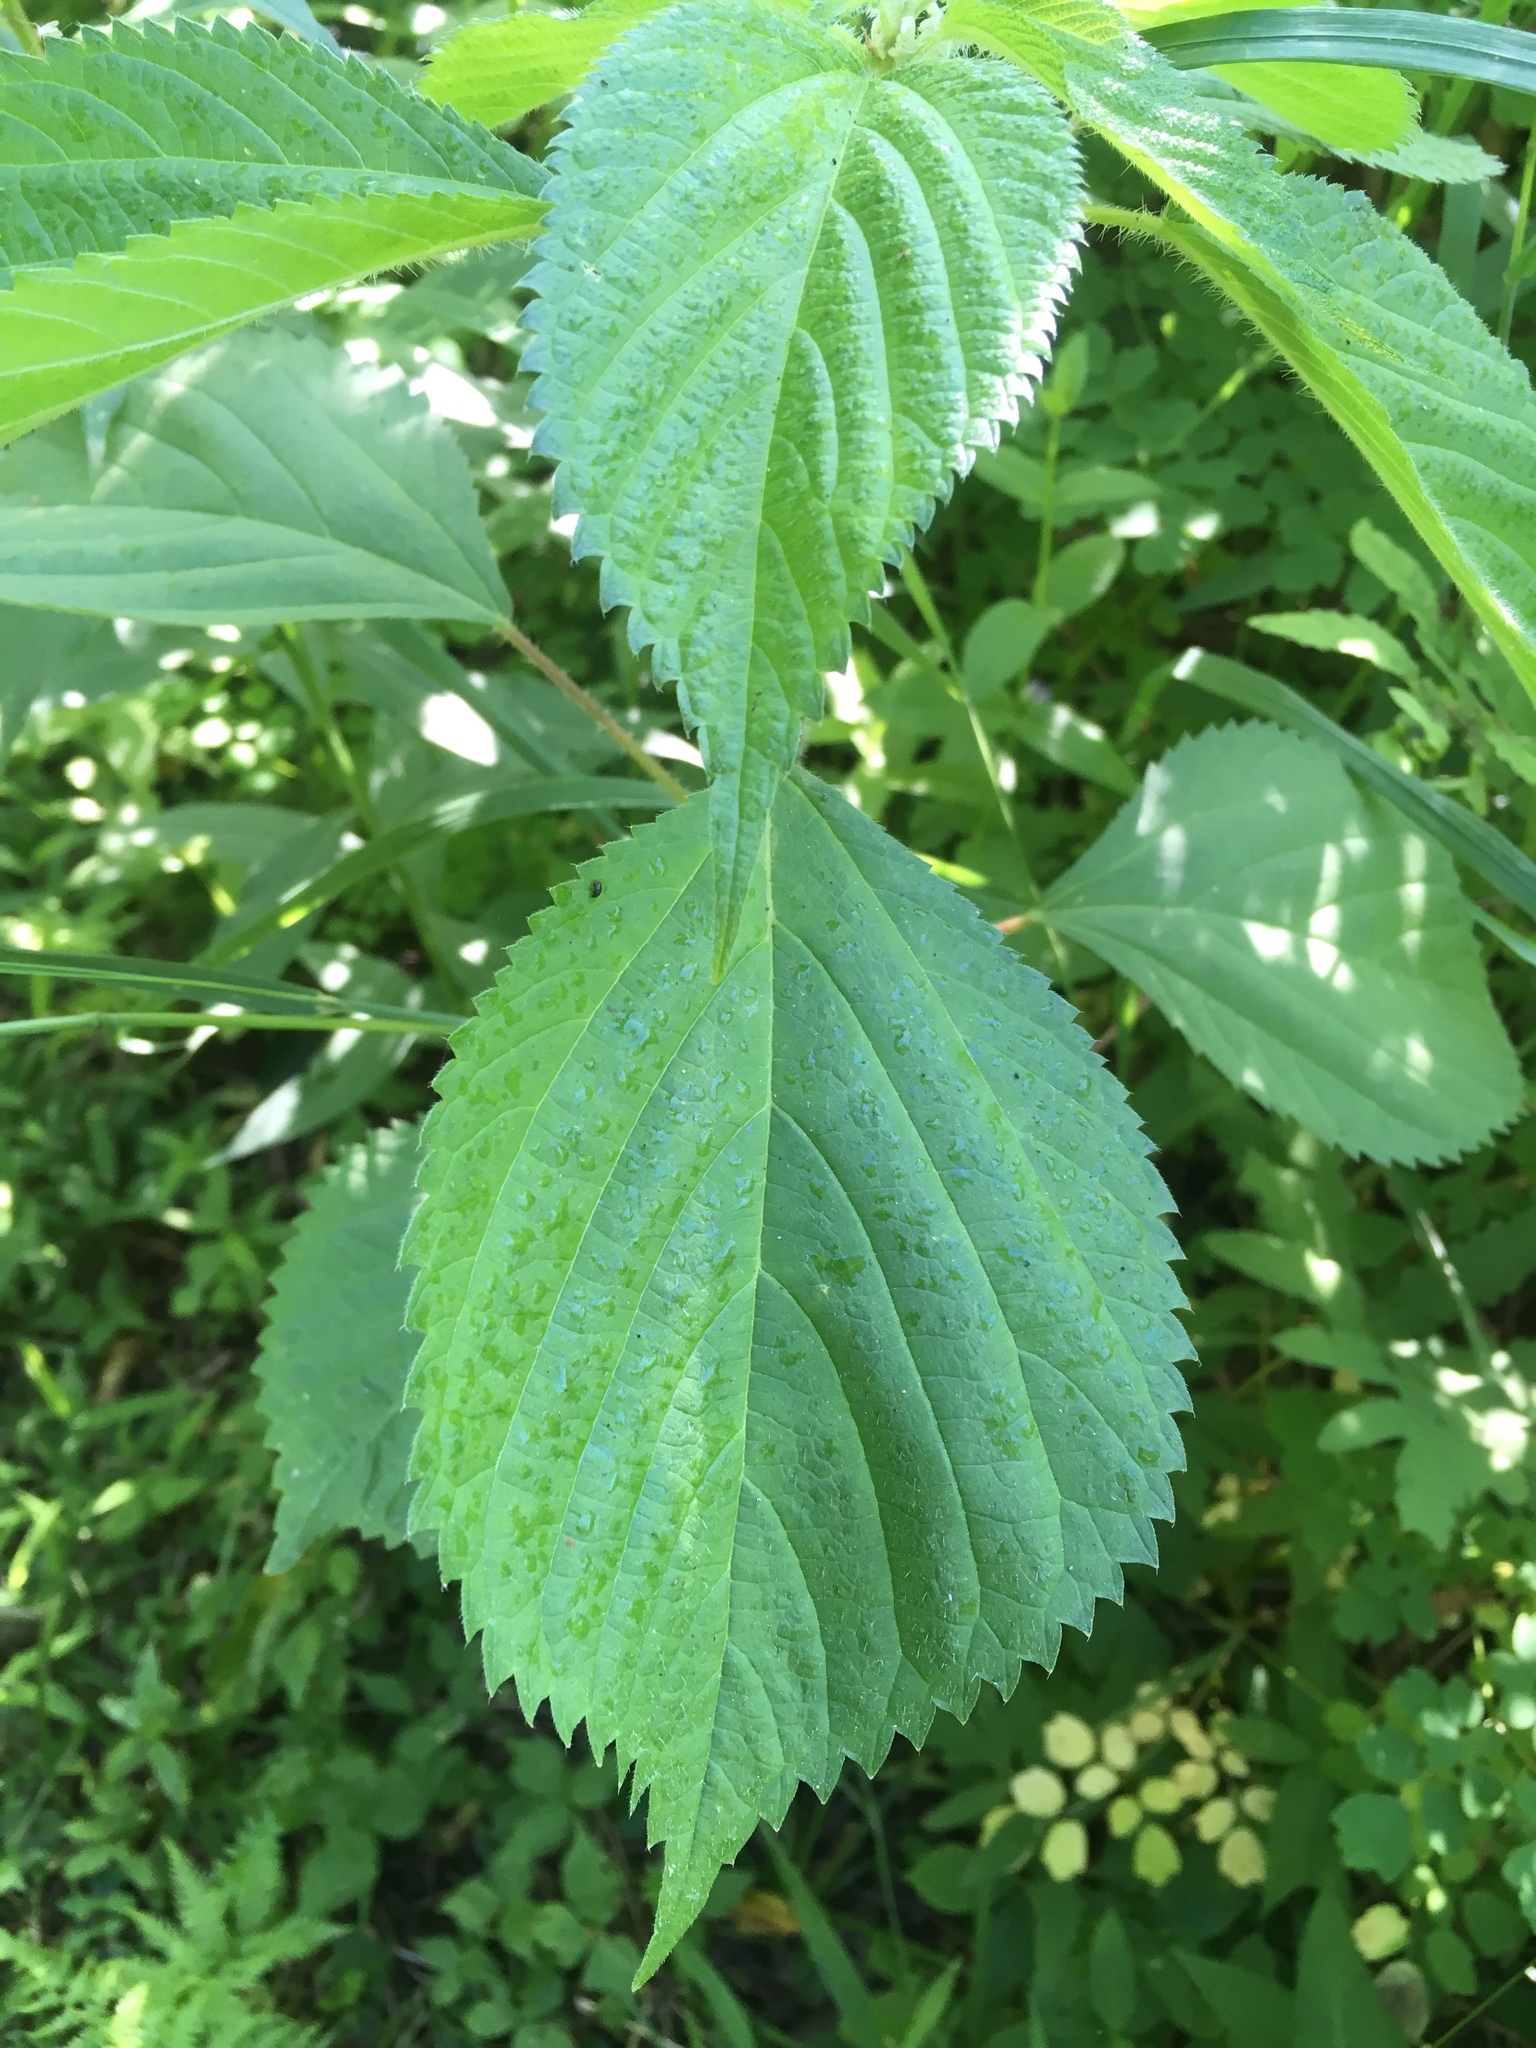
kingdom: Plantae
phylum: Tracheophyta
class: Magnoliopsida
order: Rosales
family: Urticaceae
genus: Laportea
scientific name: Laportea canadensis
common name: Canada nettle
